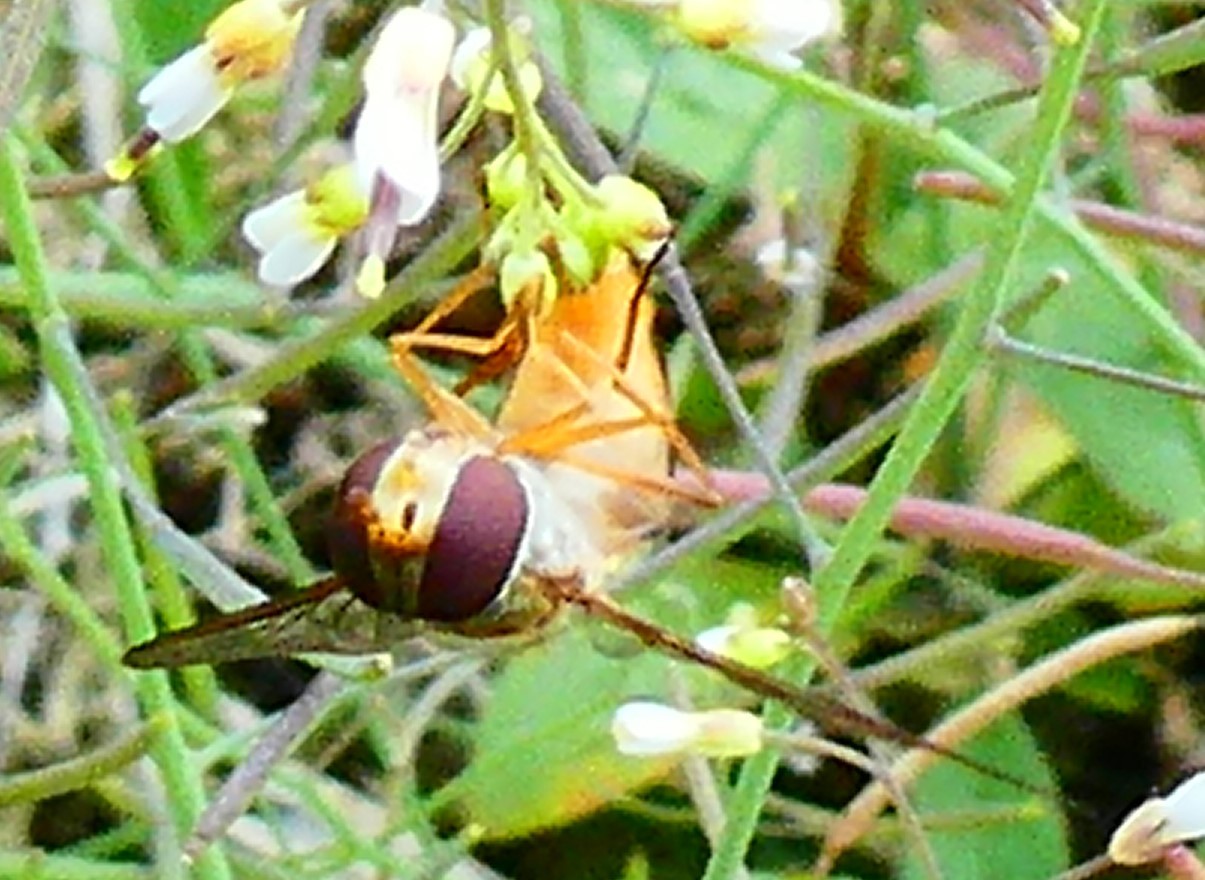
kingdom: Animalia
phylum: Arthropoda
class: Insecta
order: Diptera
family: Syrphidae
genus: Episyrphus
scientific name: Episyrphus balteatus
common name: Marmalade hoverfly
